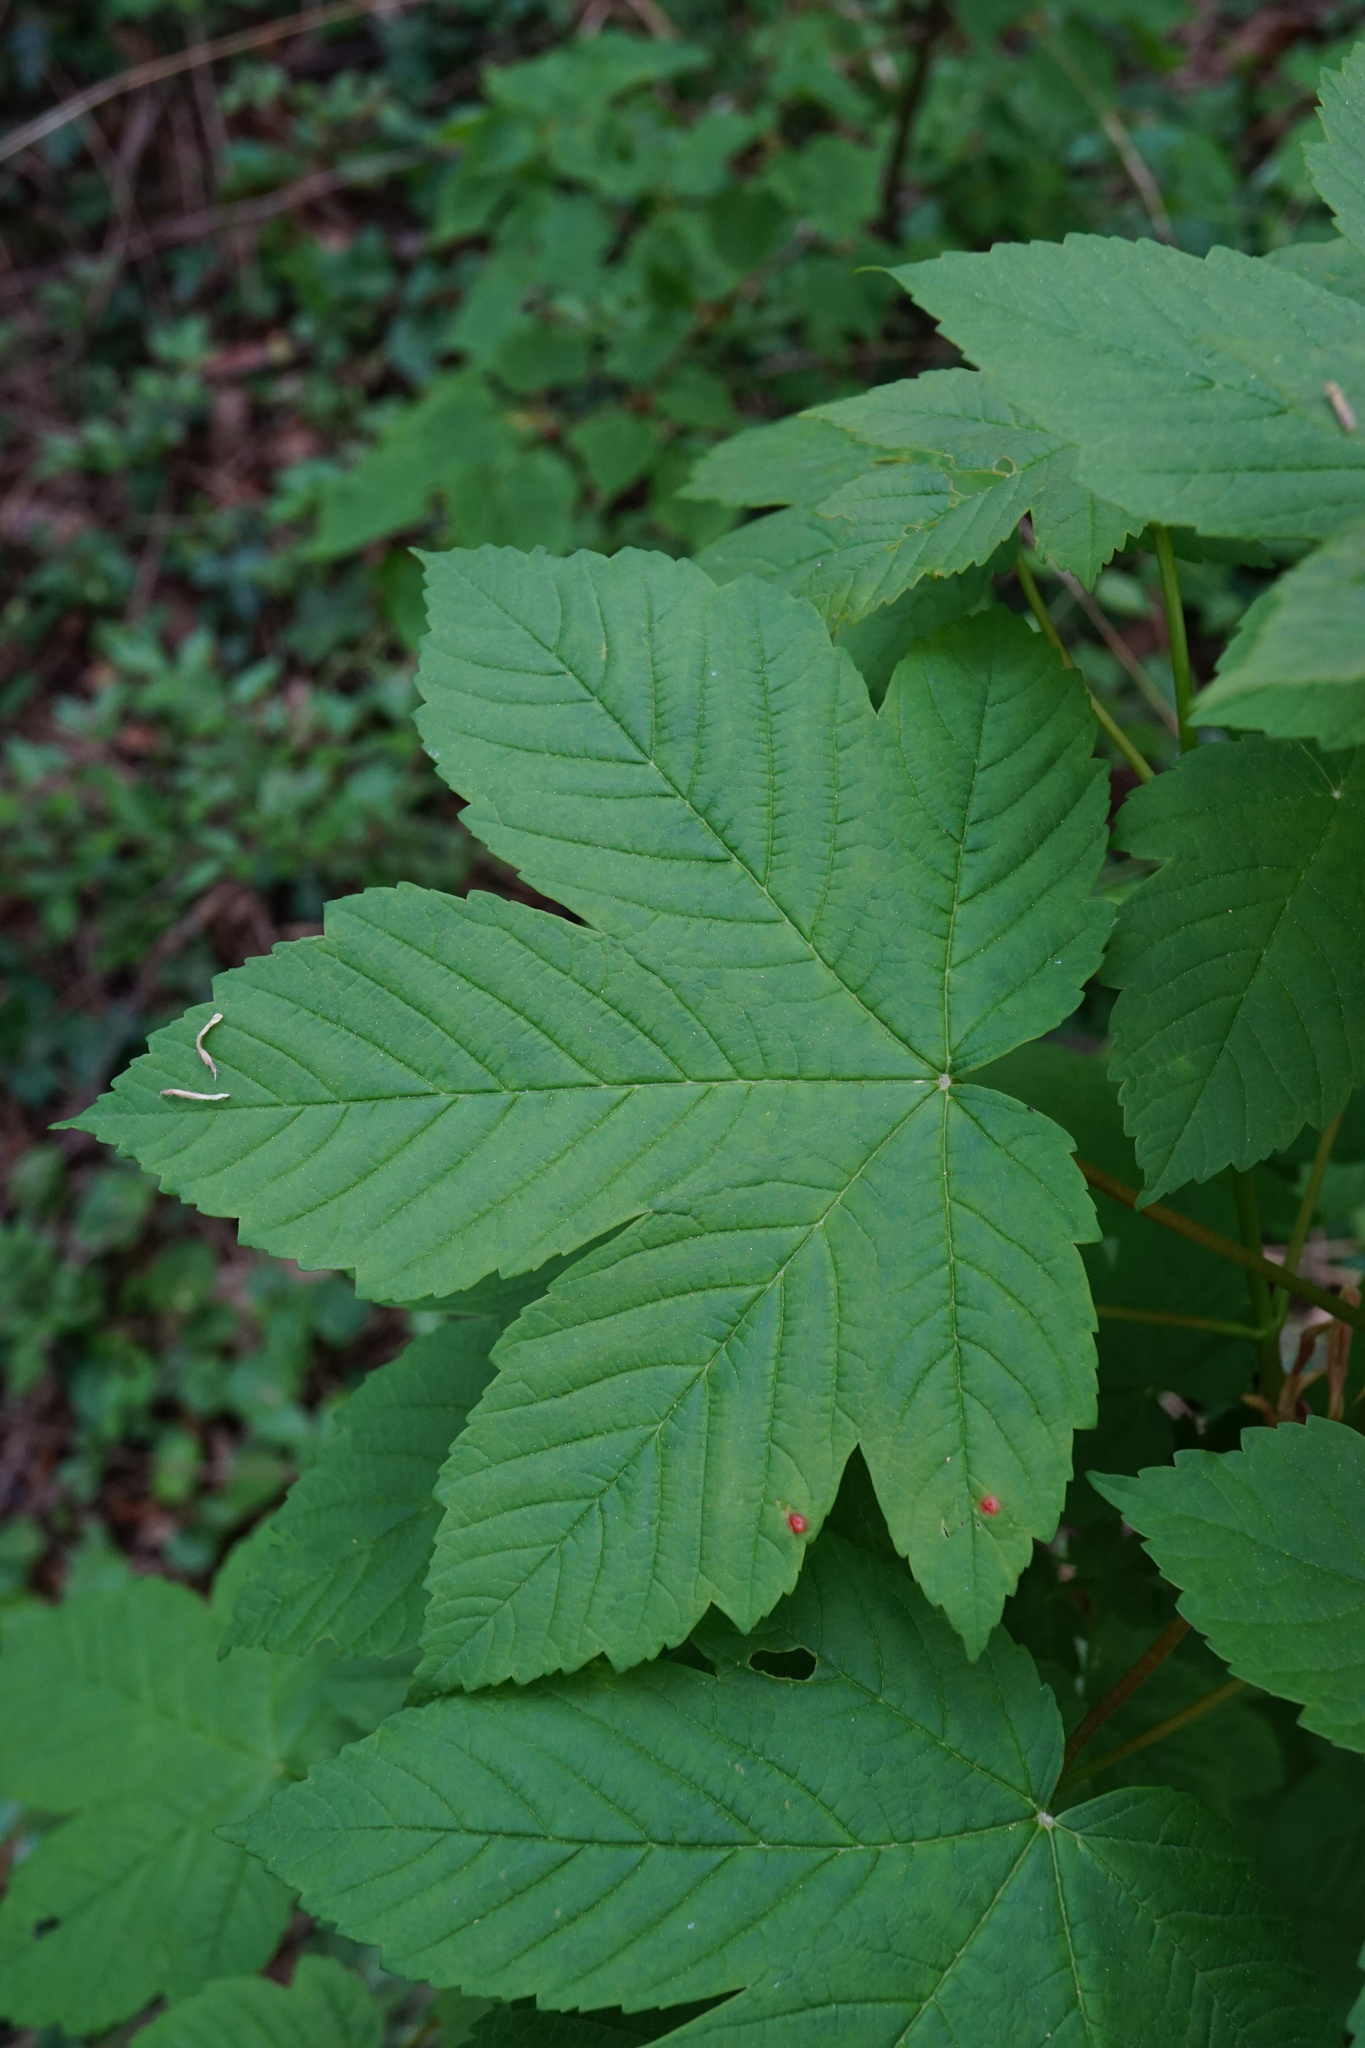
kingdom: Plantae
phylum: Tracheophyta
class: Magnoliopsida
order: Sapindales
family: Sapindaceae
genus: Acer
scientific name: Acer pseudoplatanus
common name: Sycamore
